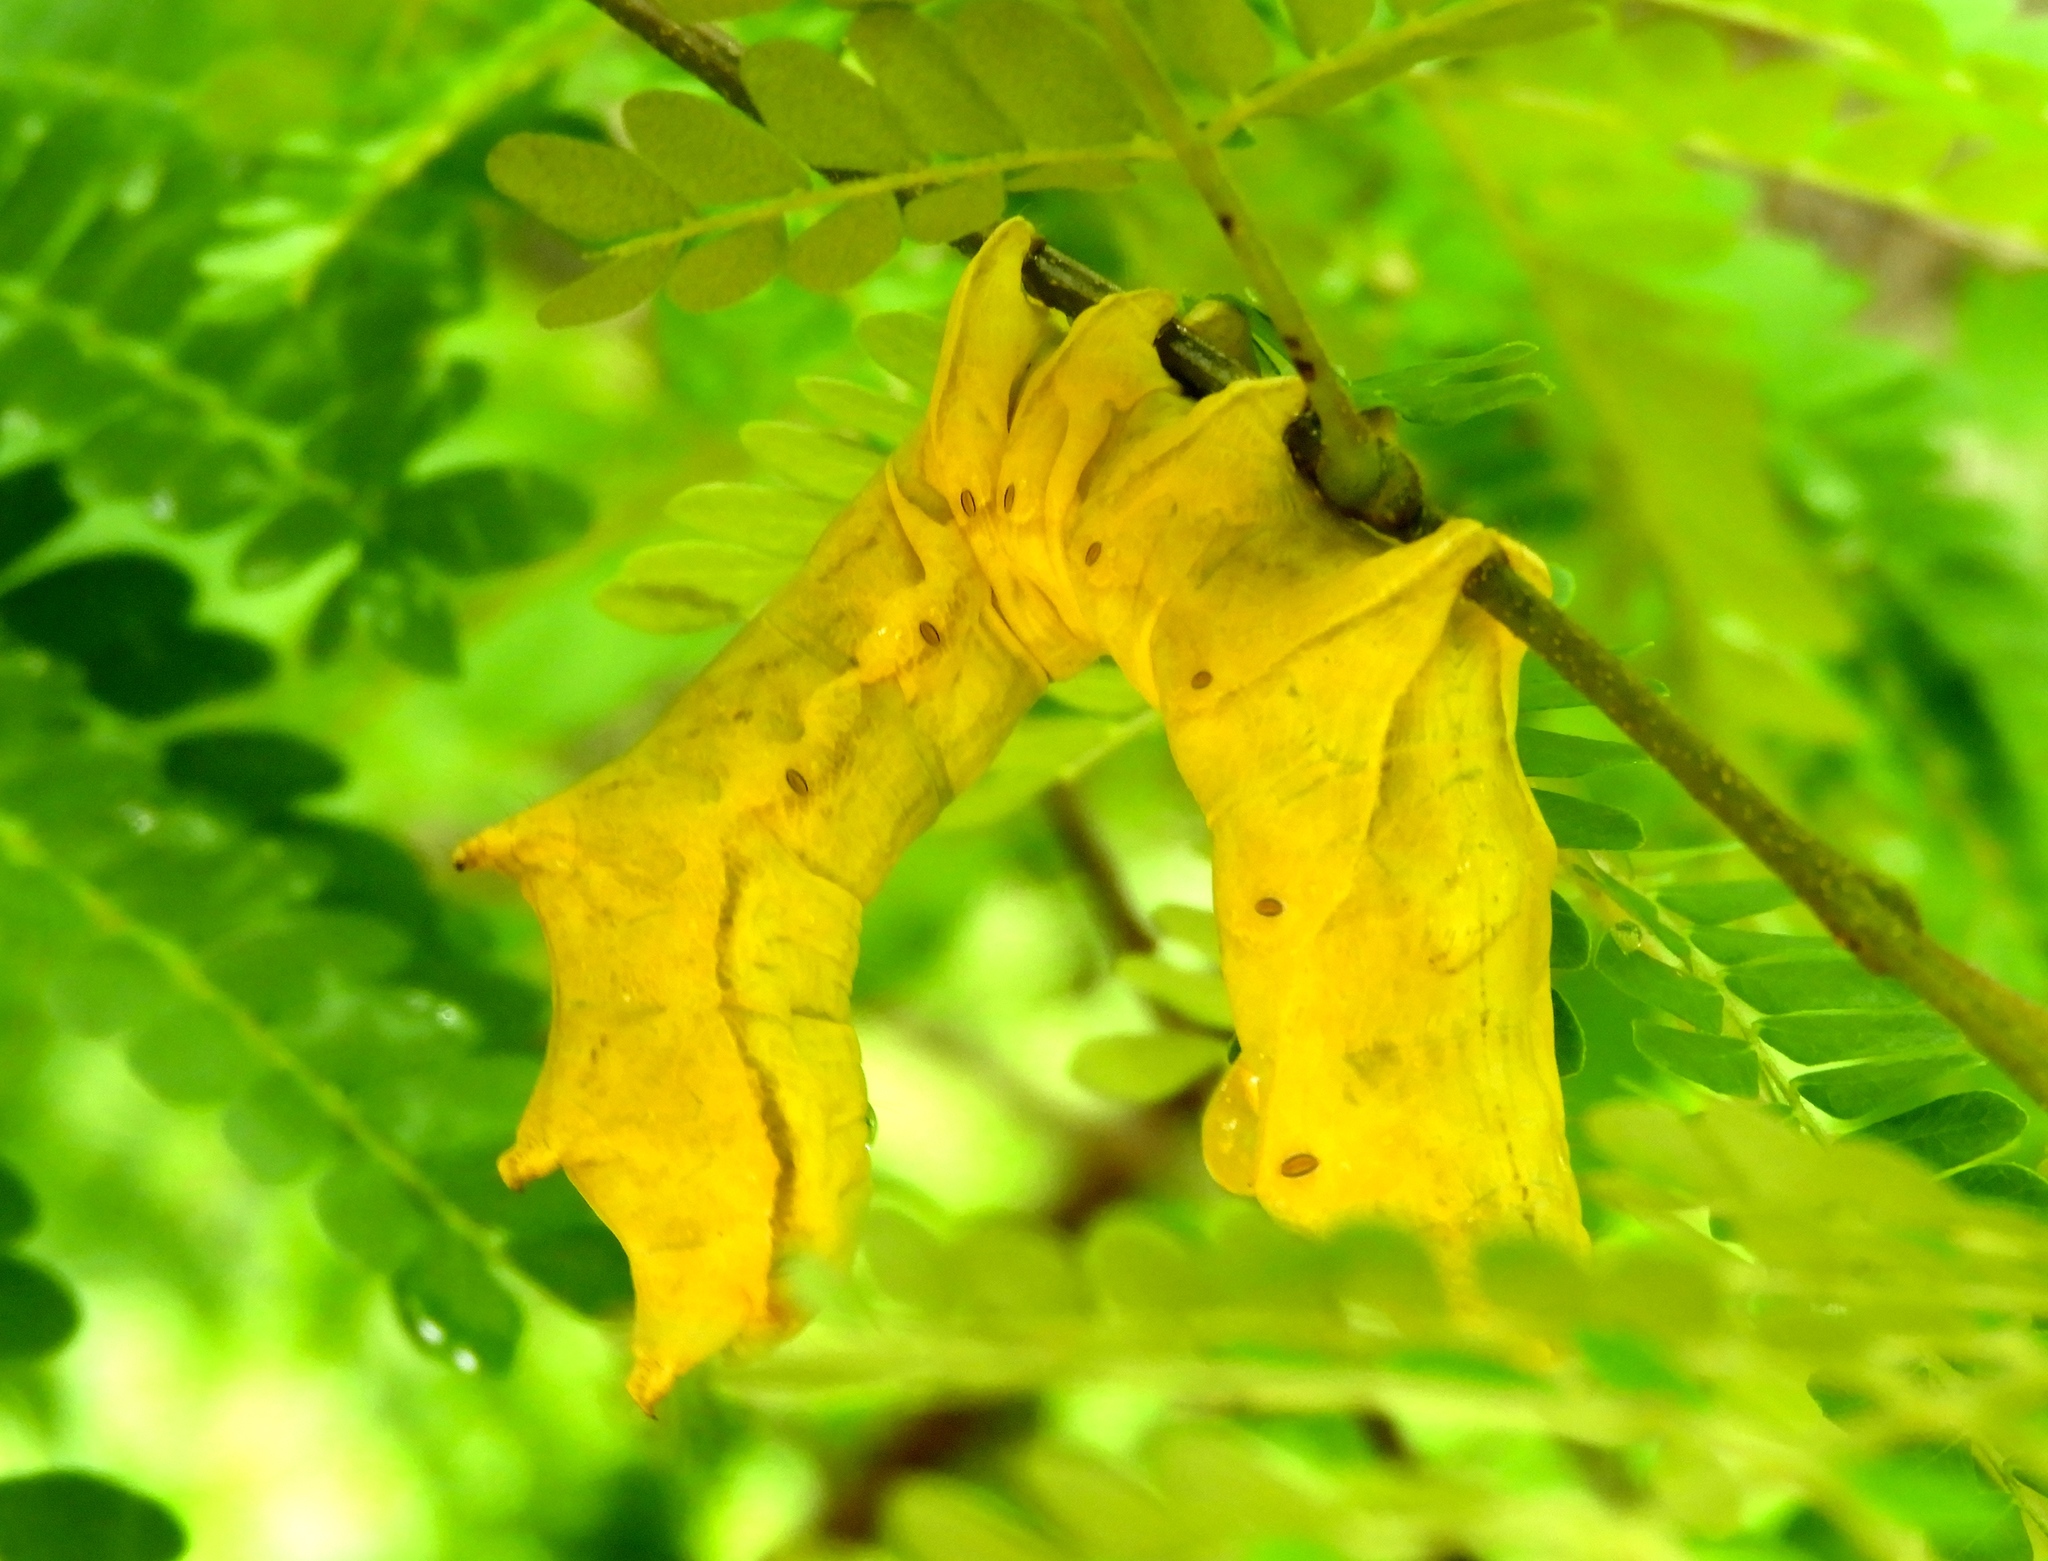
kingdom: Animalia
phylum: Arthropoda
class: Insecta
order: Lepidoptera
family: Notodontidae
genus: Crinodes
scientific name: Crinodes
